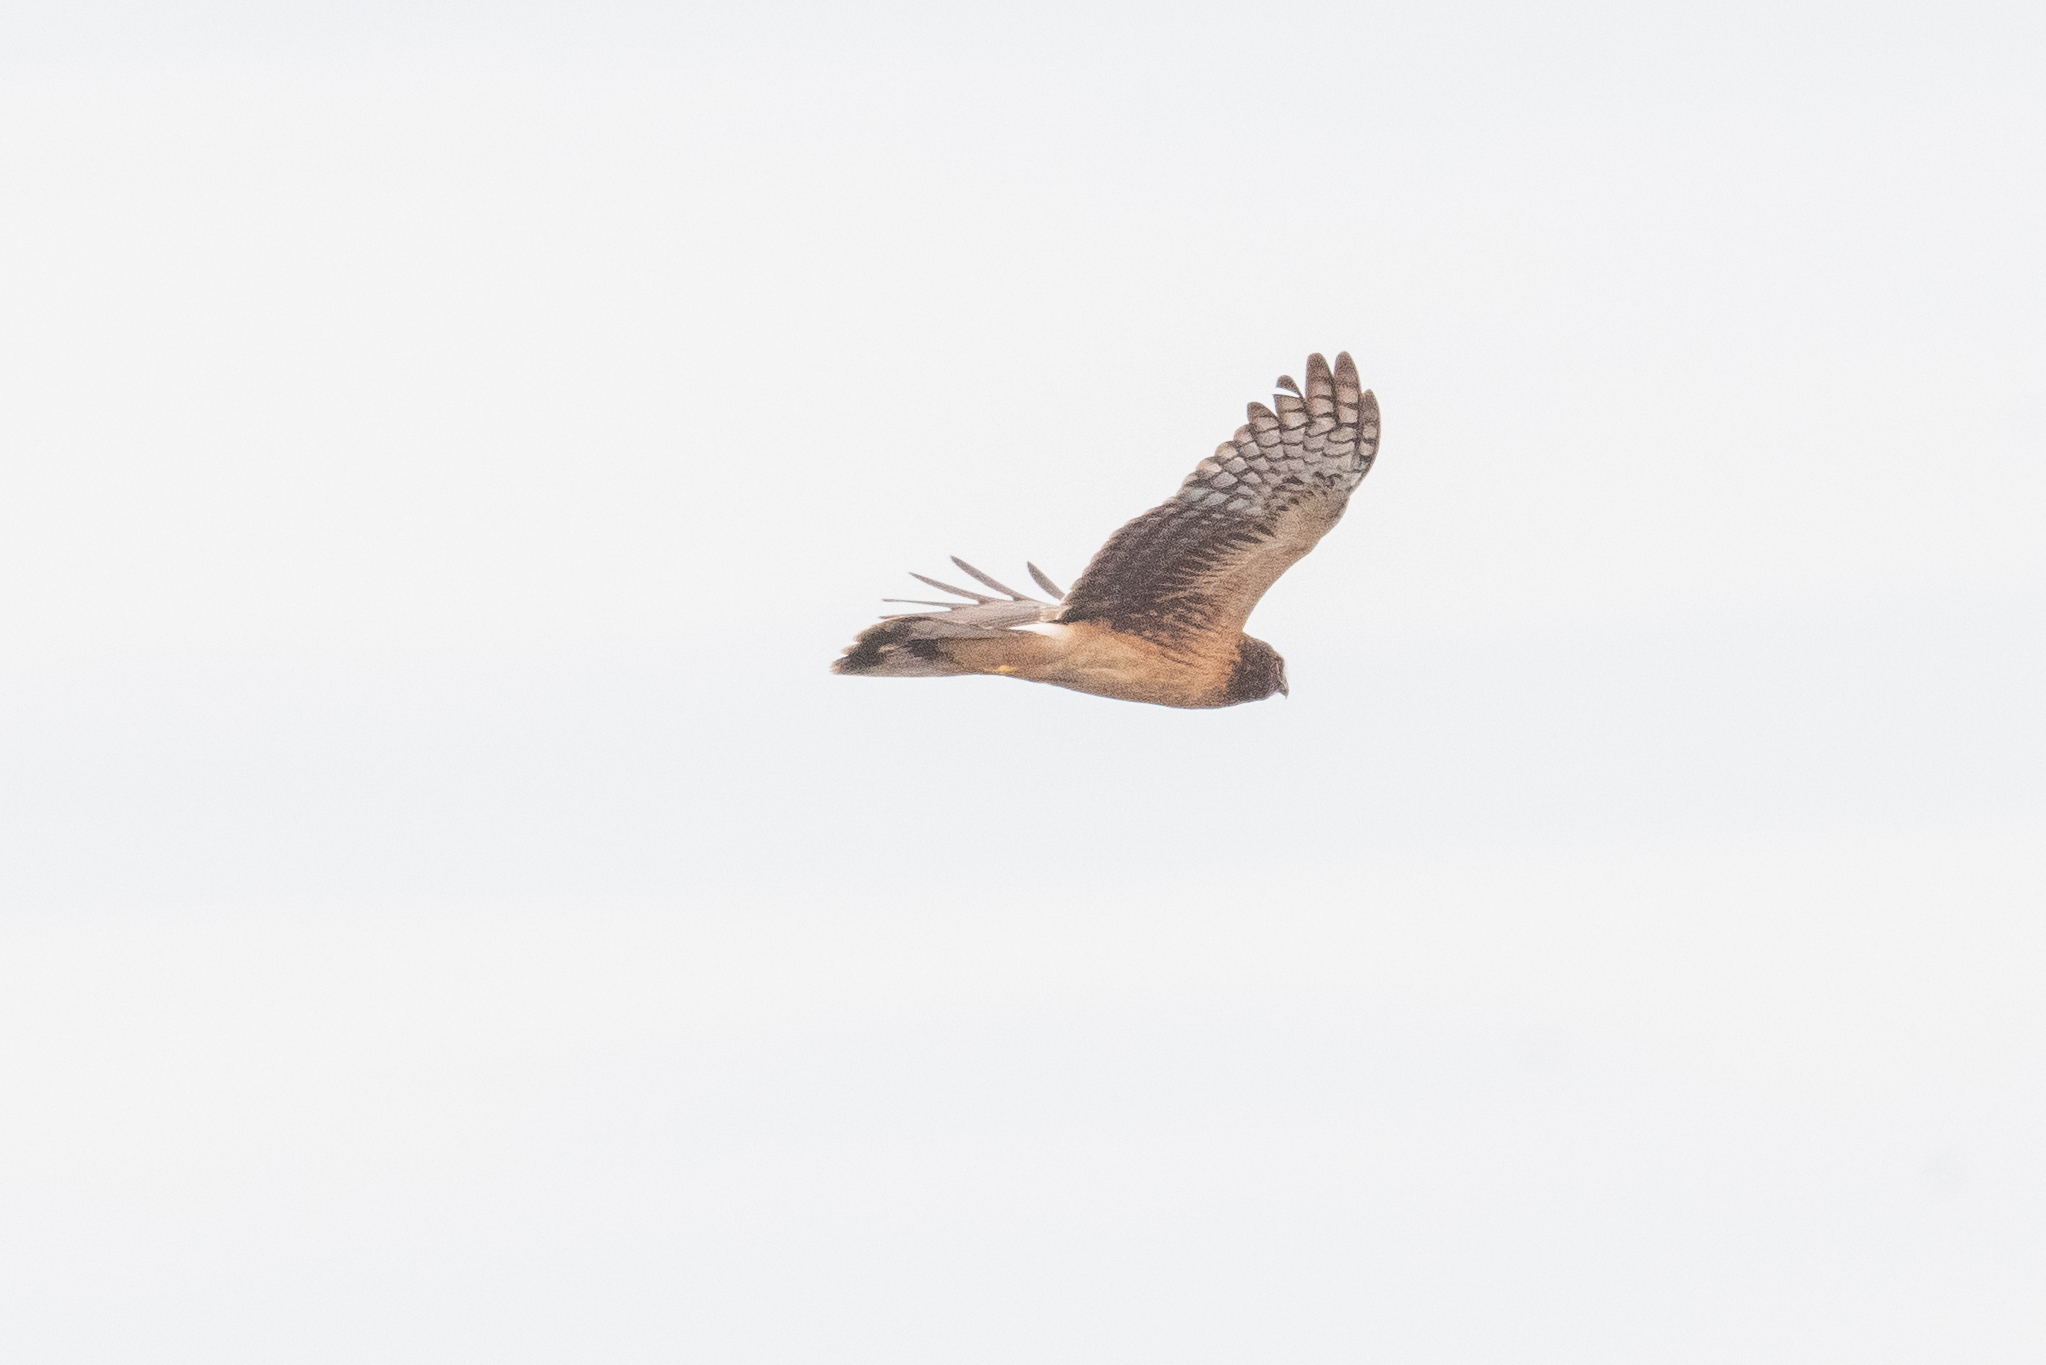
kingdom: Animalia
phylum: Chordata
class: Aves
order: Accipitriformes
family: Accipitridae
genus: Circus
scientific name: Circus cyaneus
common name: Hen harrier
